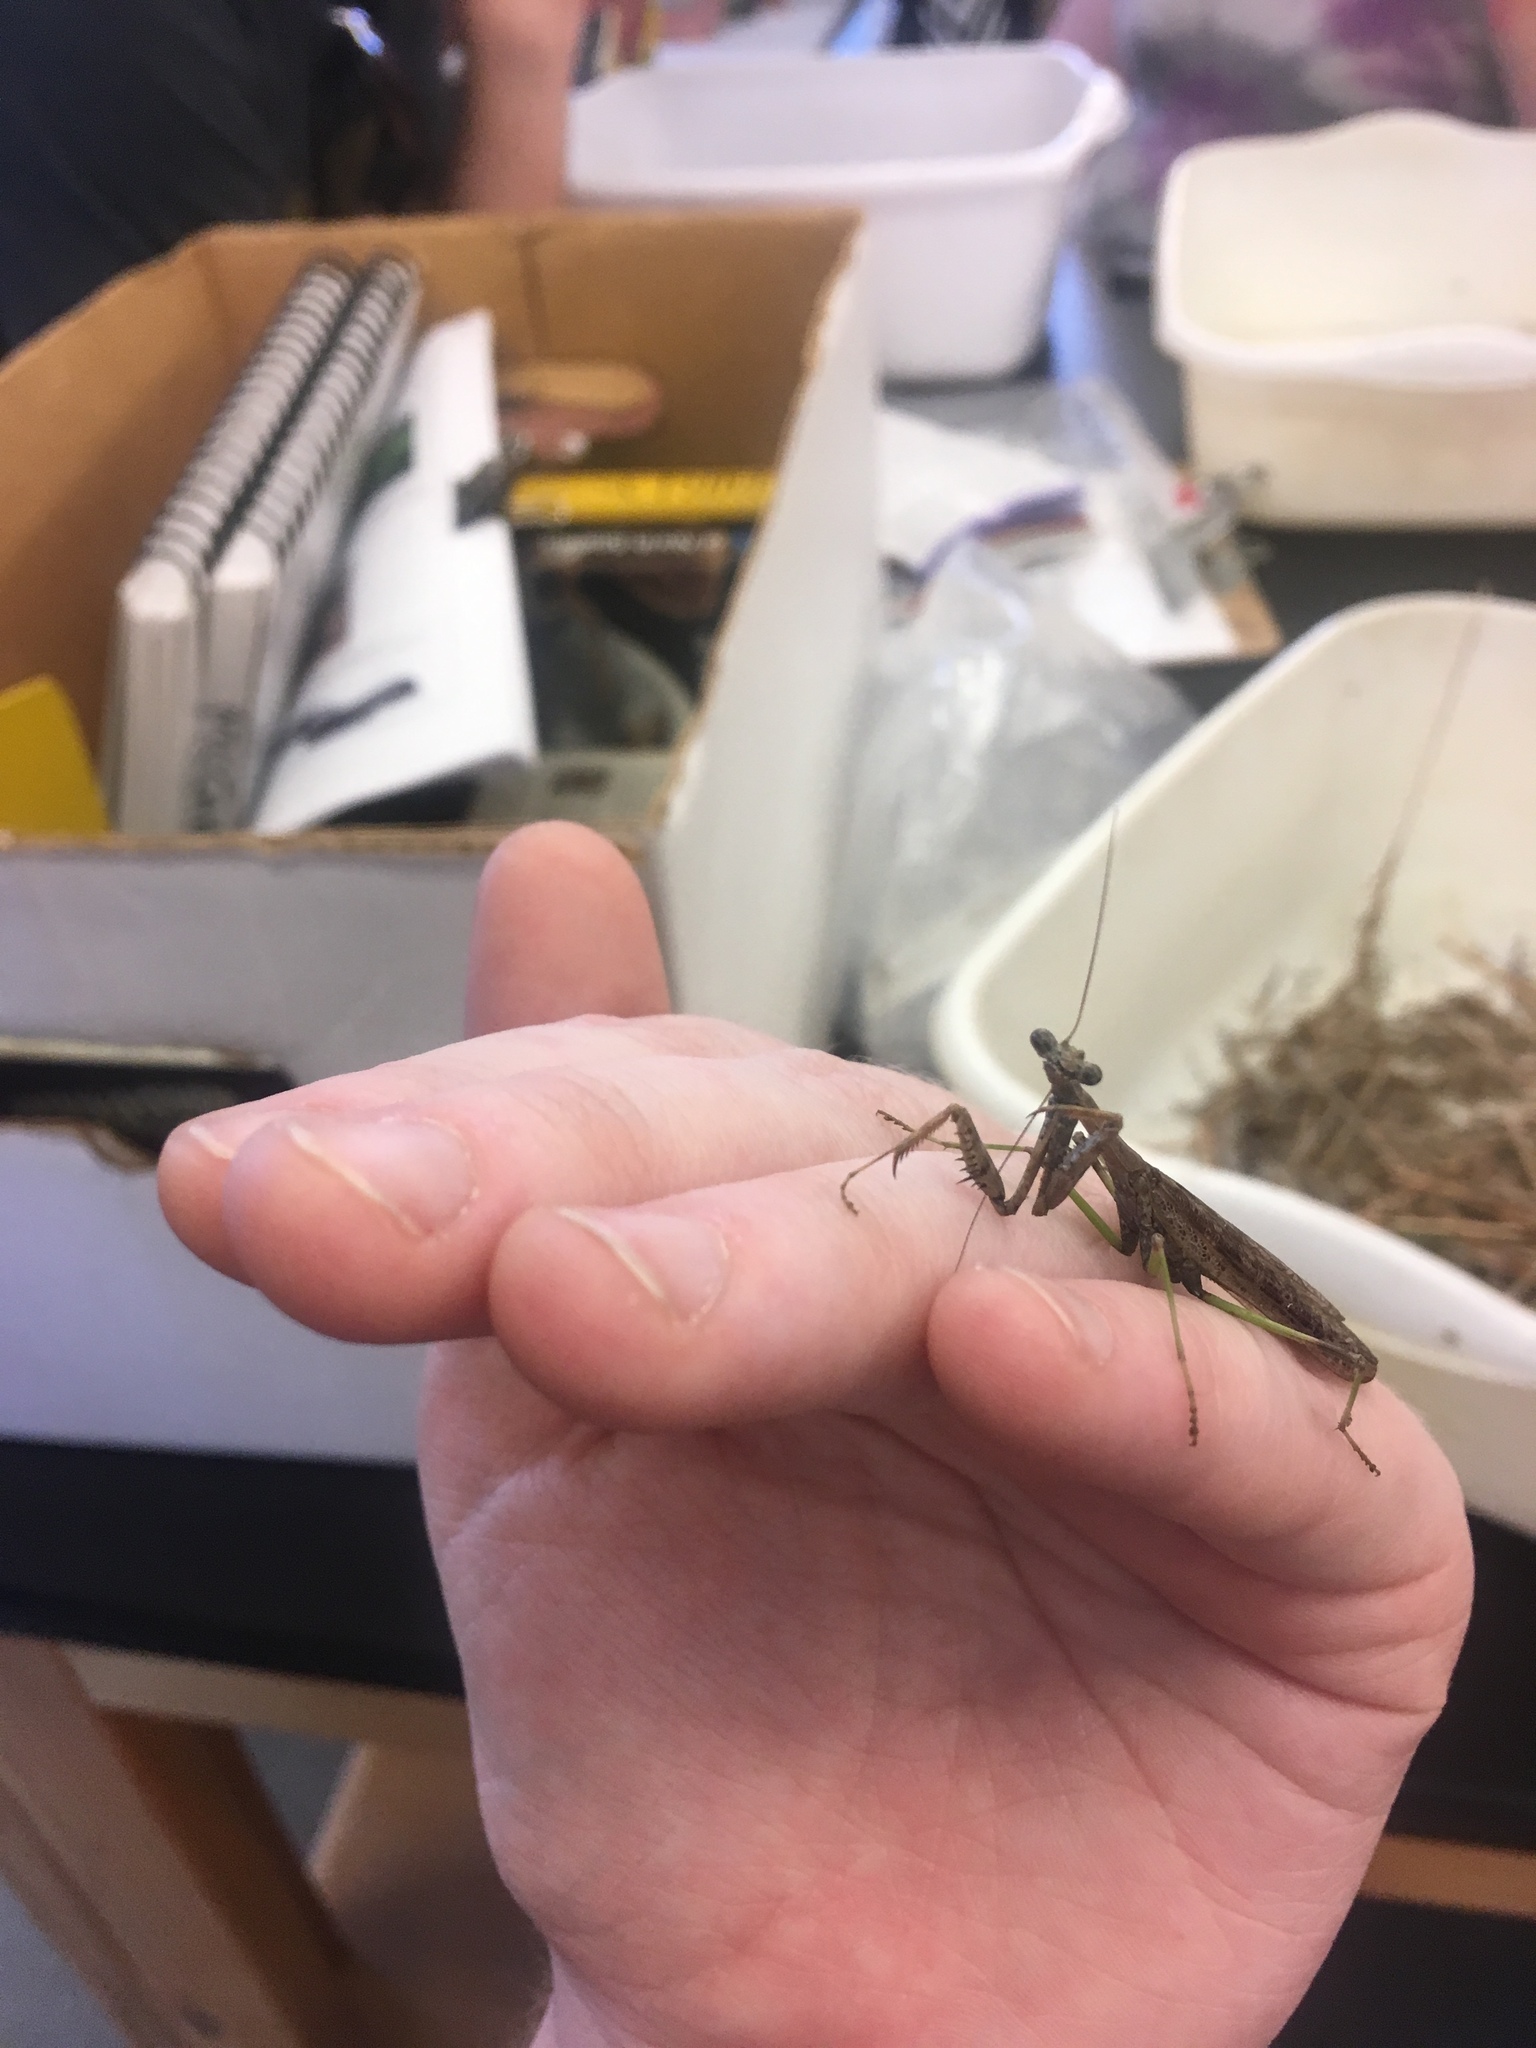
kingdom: Animalia
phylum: Arthropoda
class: Insecta
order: Mantodea
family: Mantidae
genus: Stagmomantis
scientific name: Stagmomantis carolina
